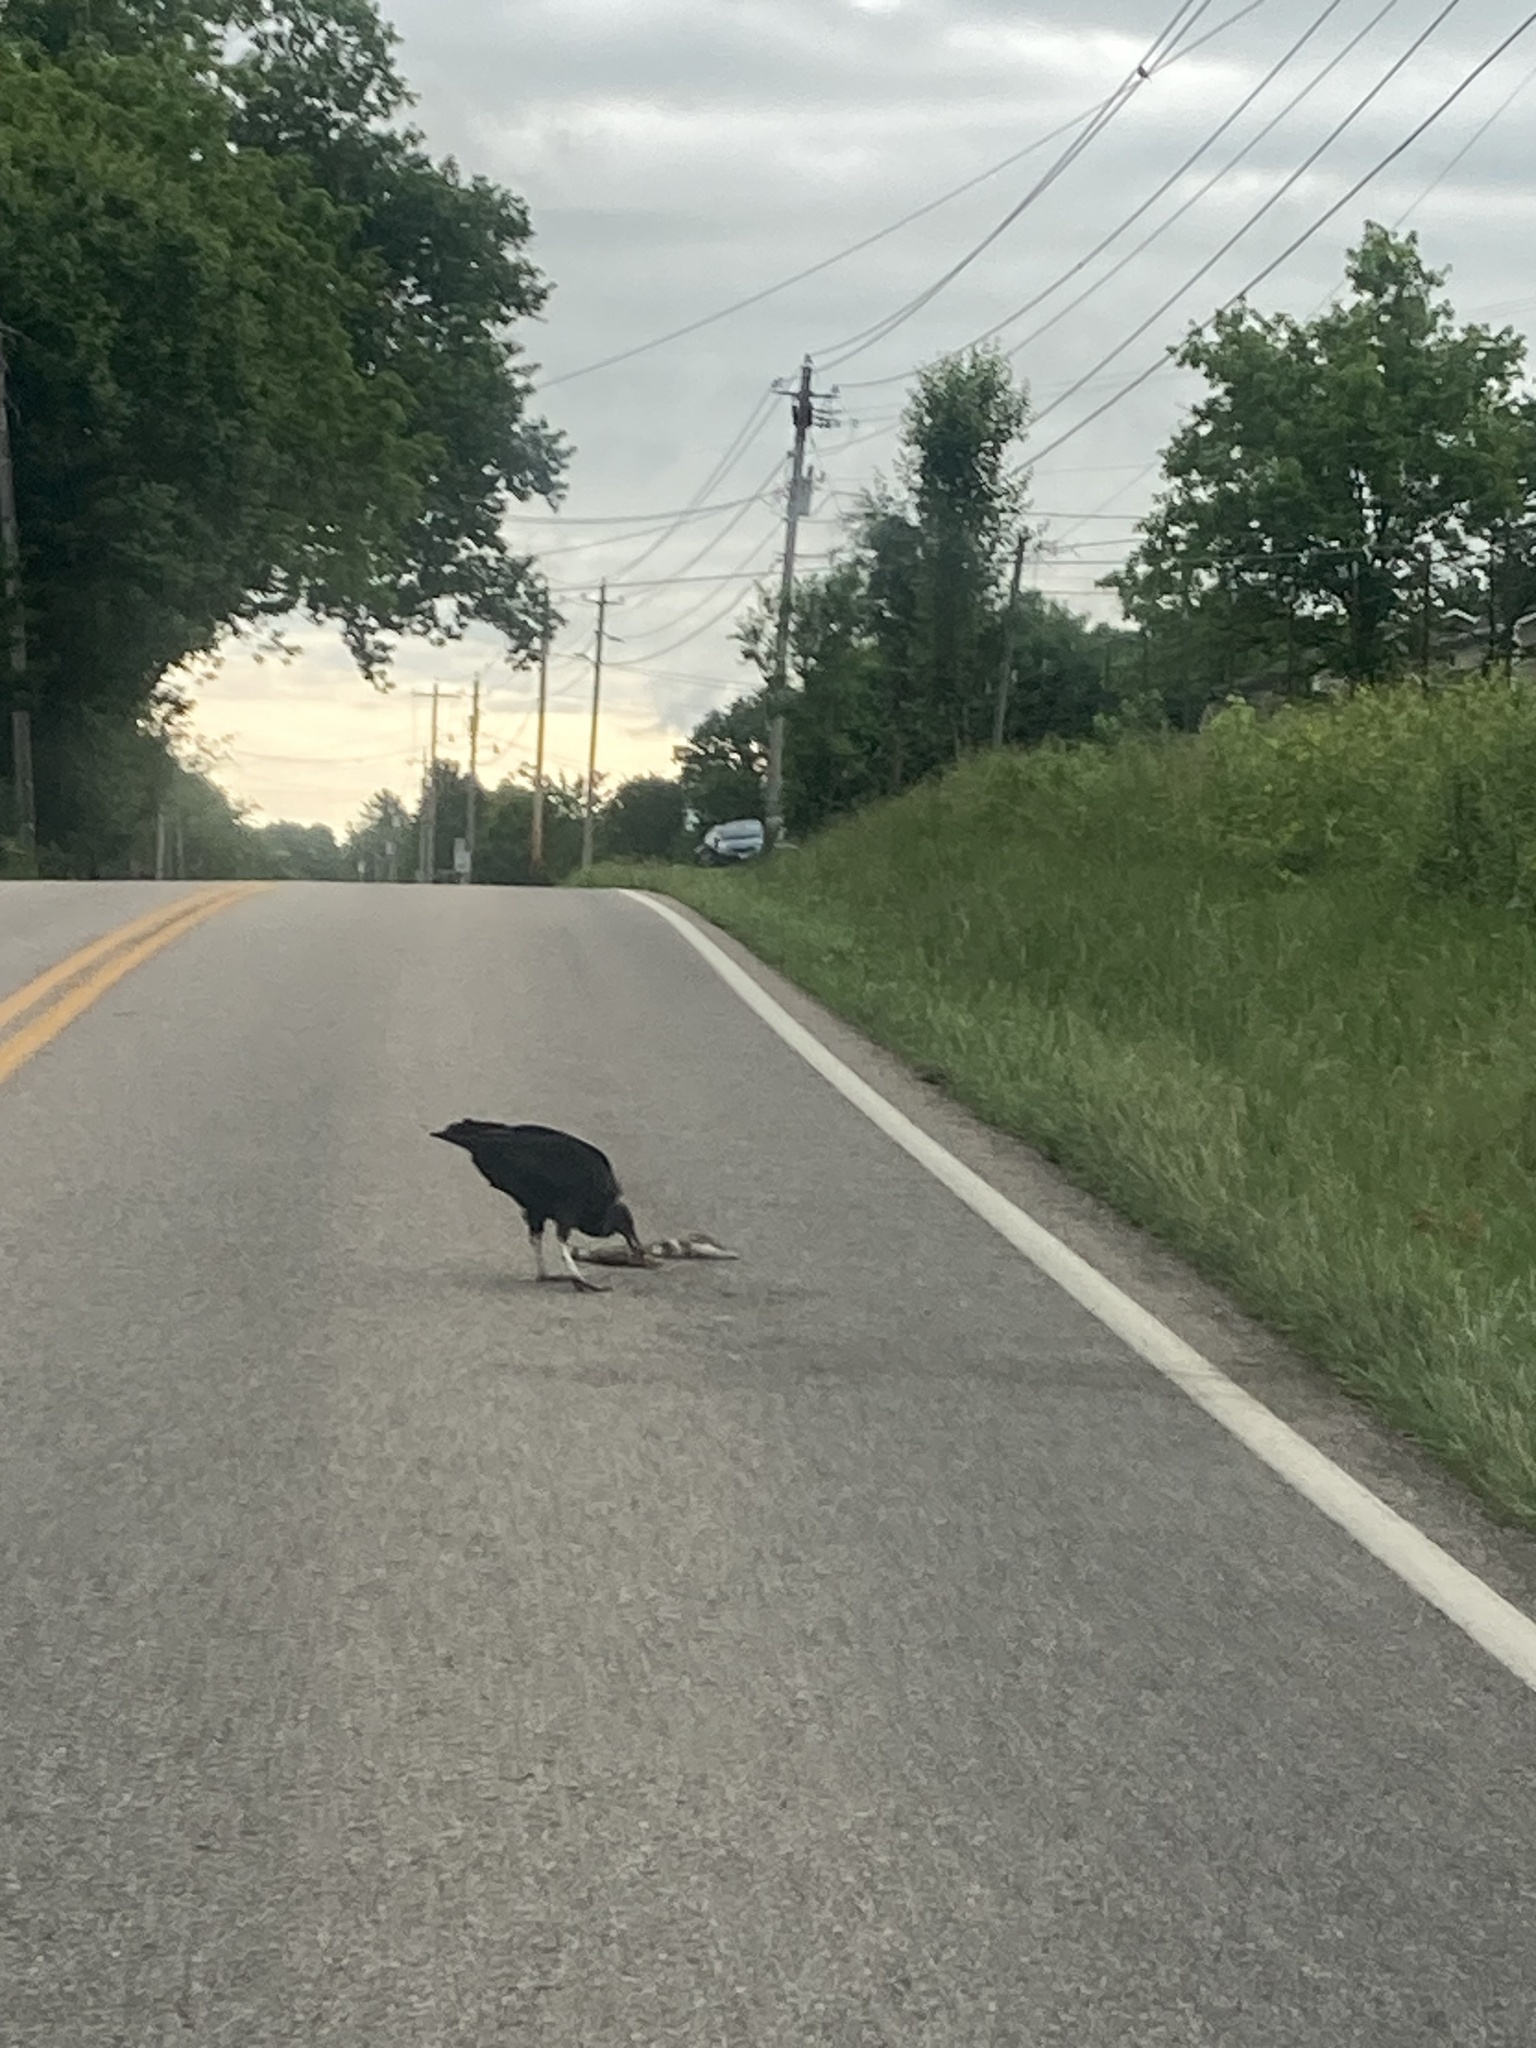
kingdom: Animalia
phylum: Chordata
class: Aves
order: Accipitriformes
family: Cathartidae
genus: Coragyps
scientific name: Coragyps atratus
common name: Black vulture
